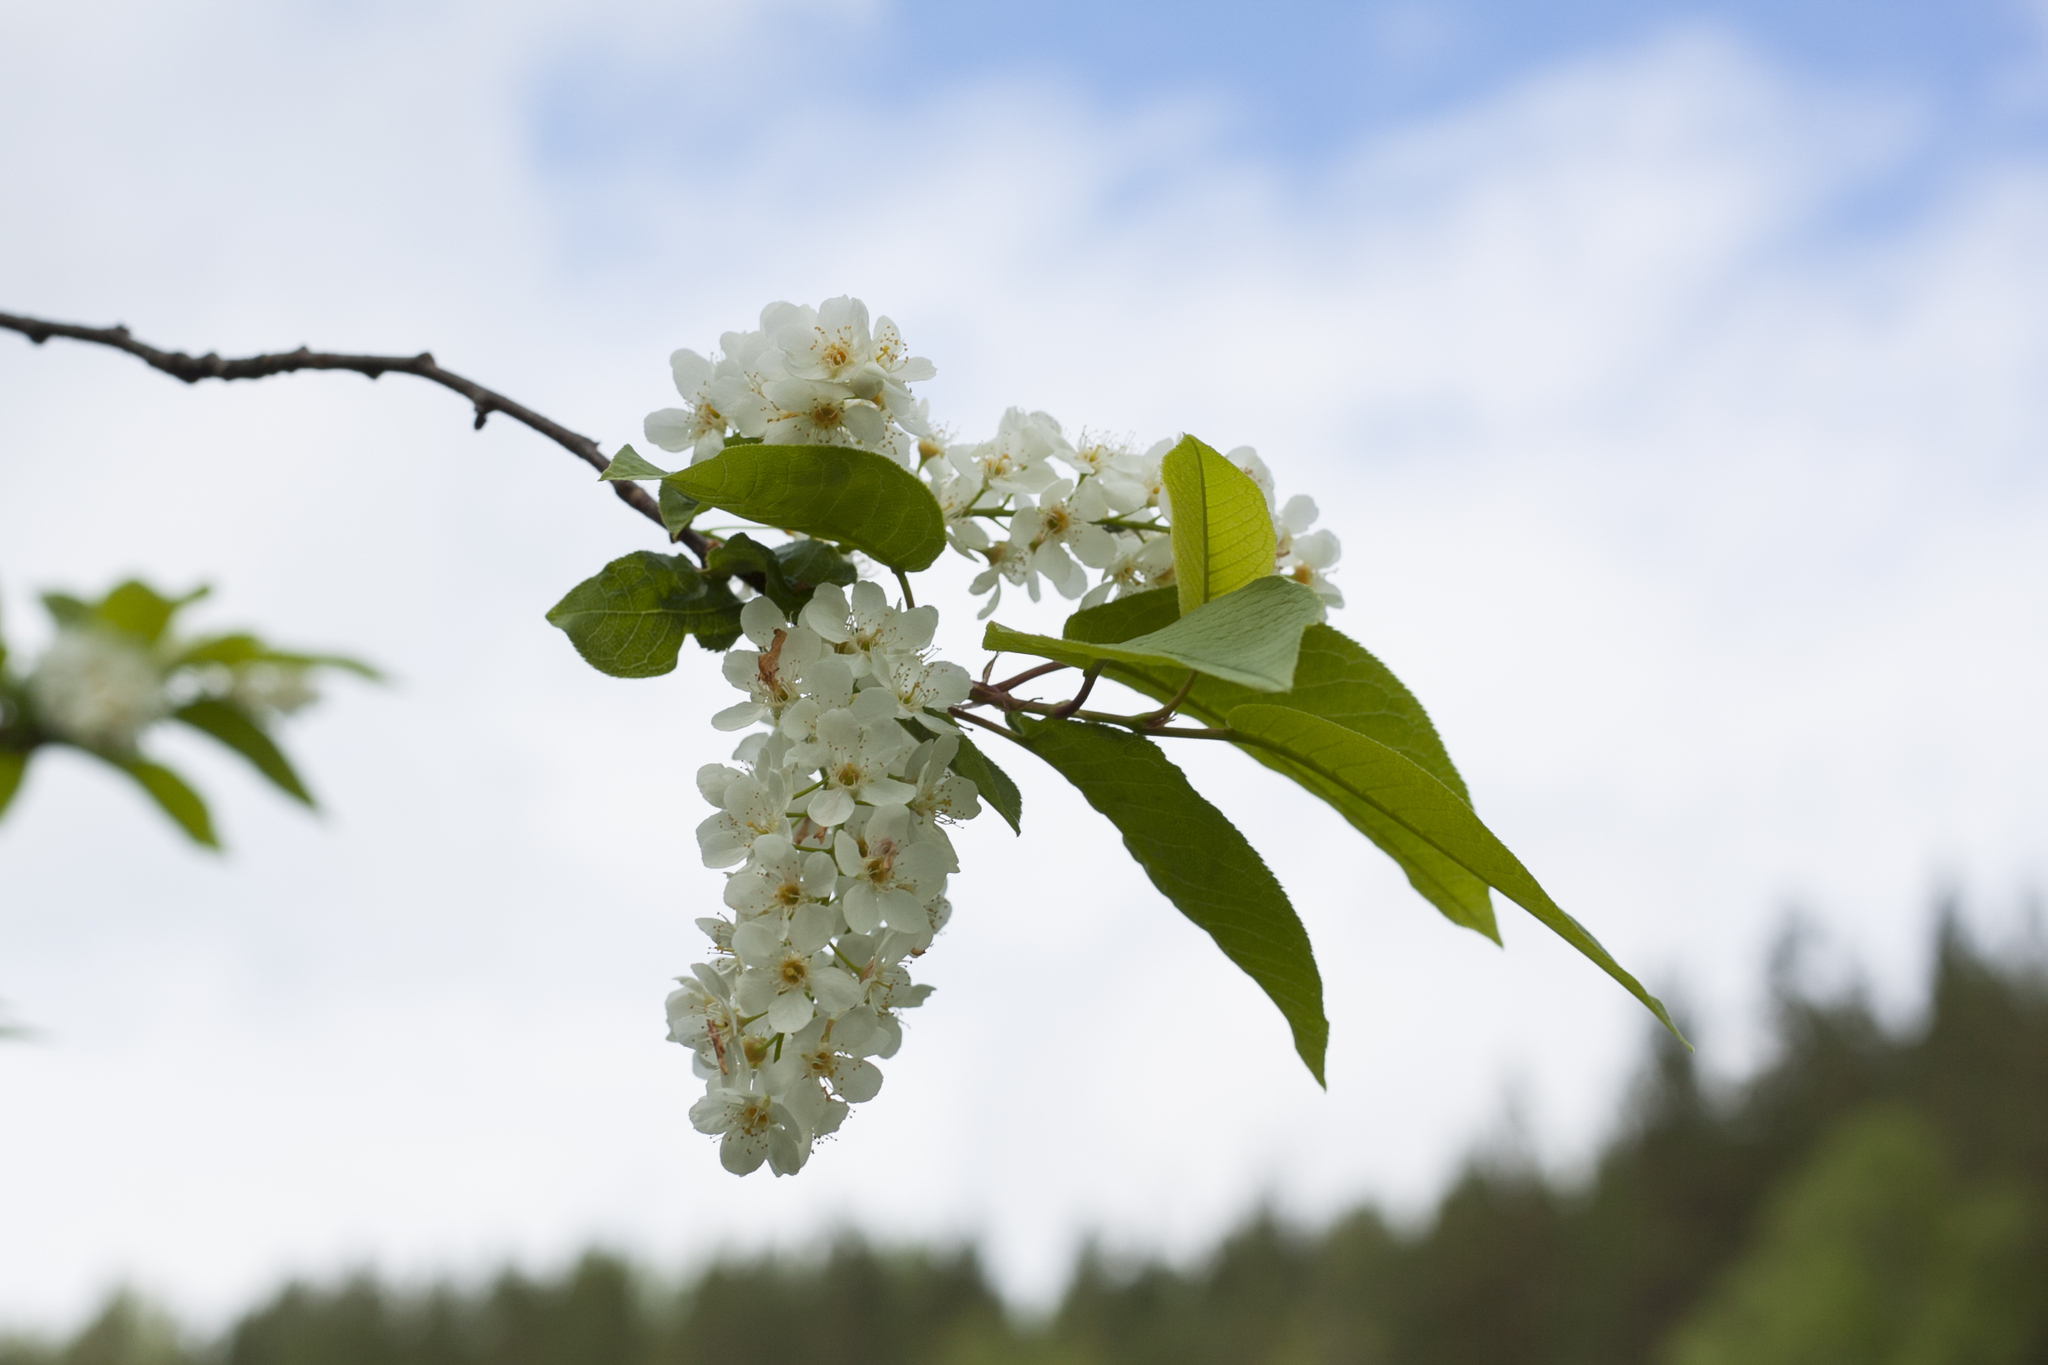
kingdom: Plantae
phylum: Tracheophyta
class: Magnoliopsida
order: Rosales
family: Rosaceae
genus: Prunus
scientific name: Prunus padus
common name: Bird cherry
